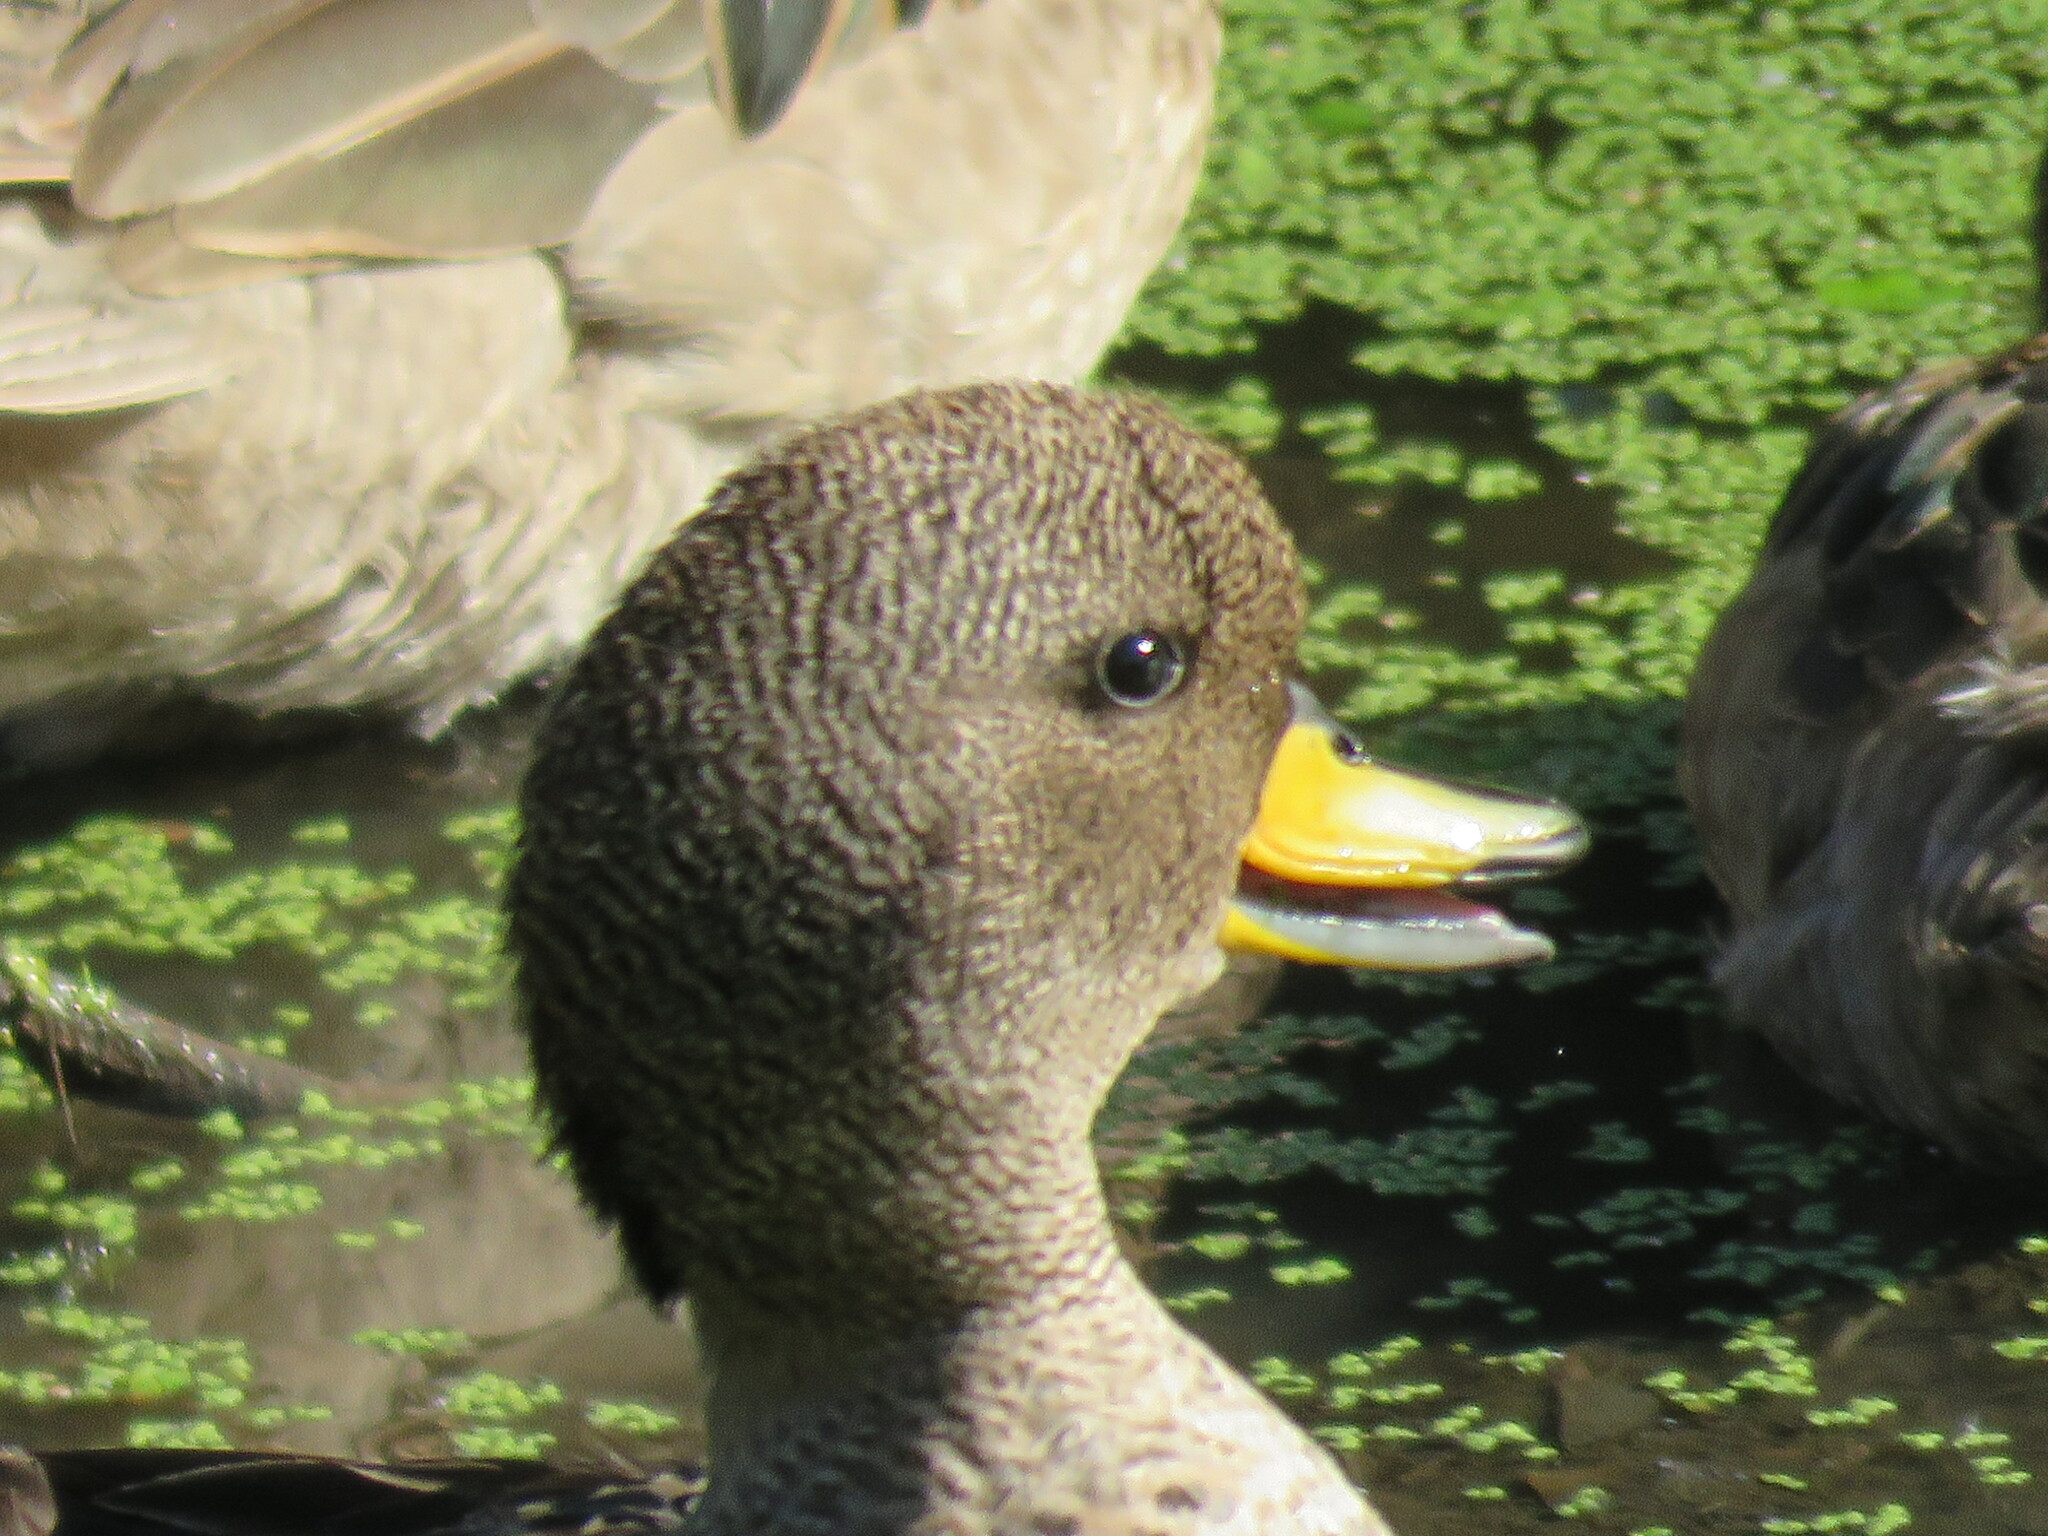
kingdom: Animalia
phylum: Chordata
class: Aves
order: Anseriformes
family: Anatidae
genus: Anas
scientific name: Anas flavirostris
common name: Yellow-billed teal
